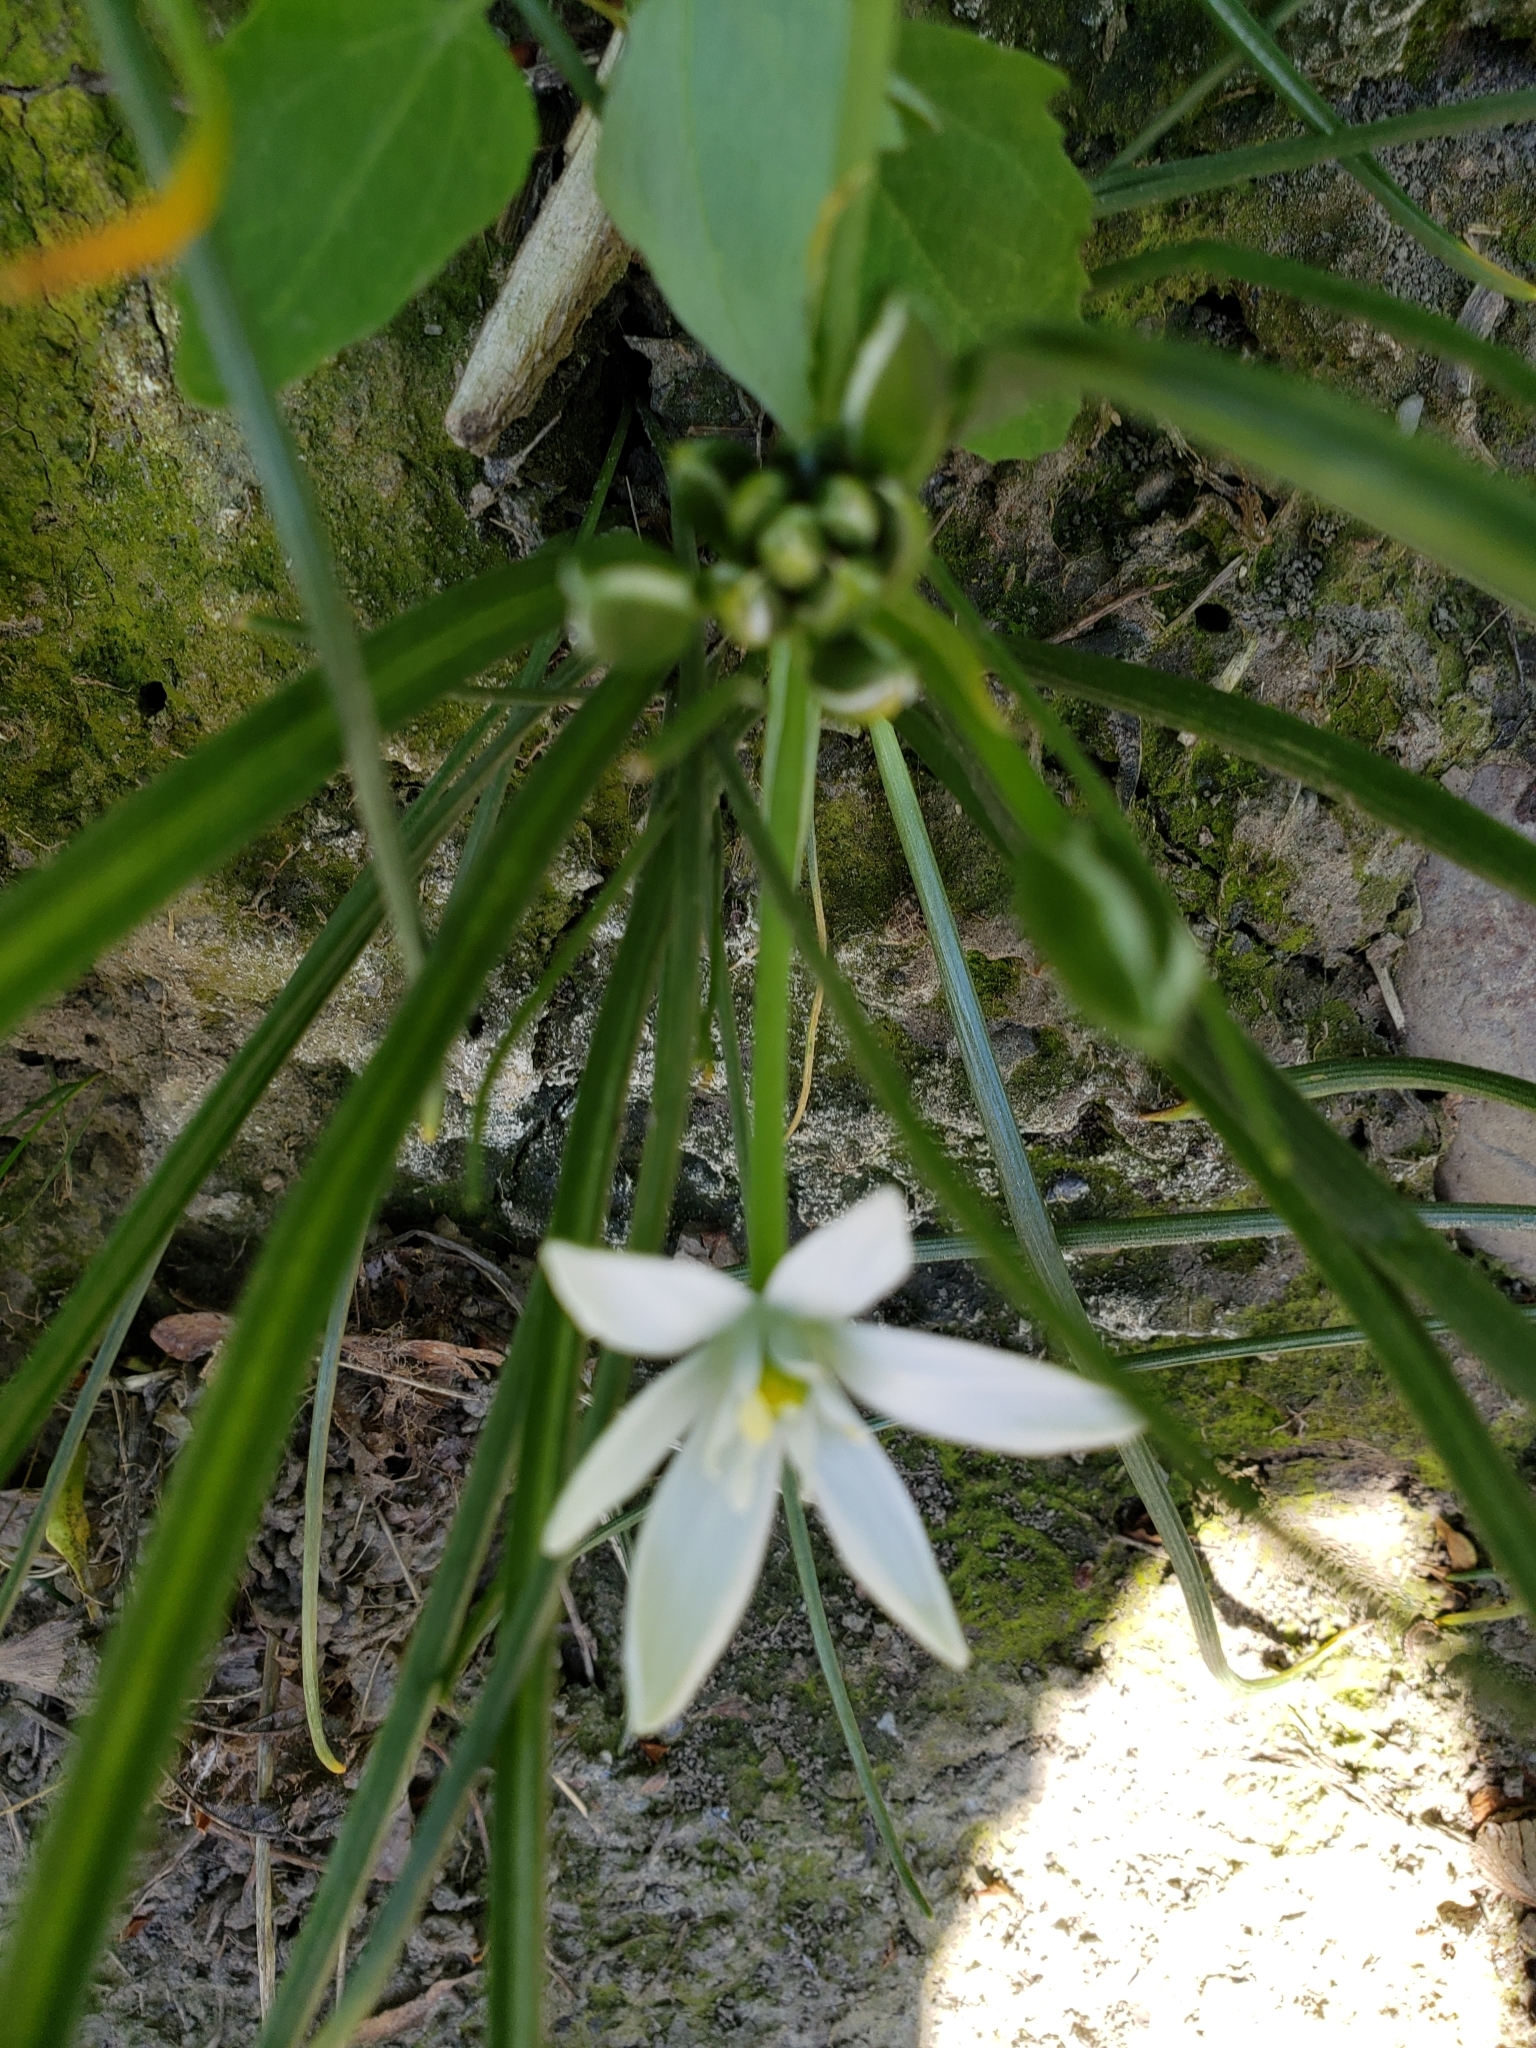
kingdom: Plantae
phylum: Tracheophyta
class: Liliopsida
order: Asparagales
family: Asparagaceae
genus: Ornithogalum
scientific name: Ornithogalum umbellatum
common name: Garden star-of-bethlehem
